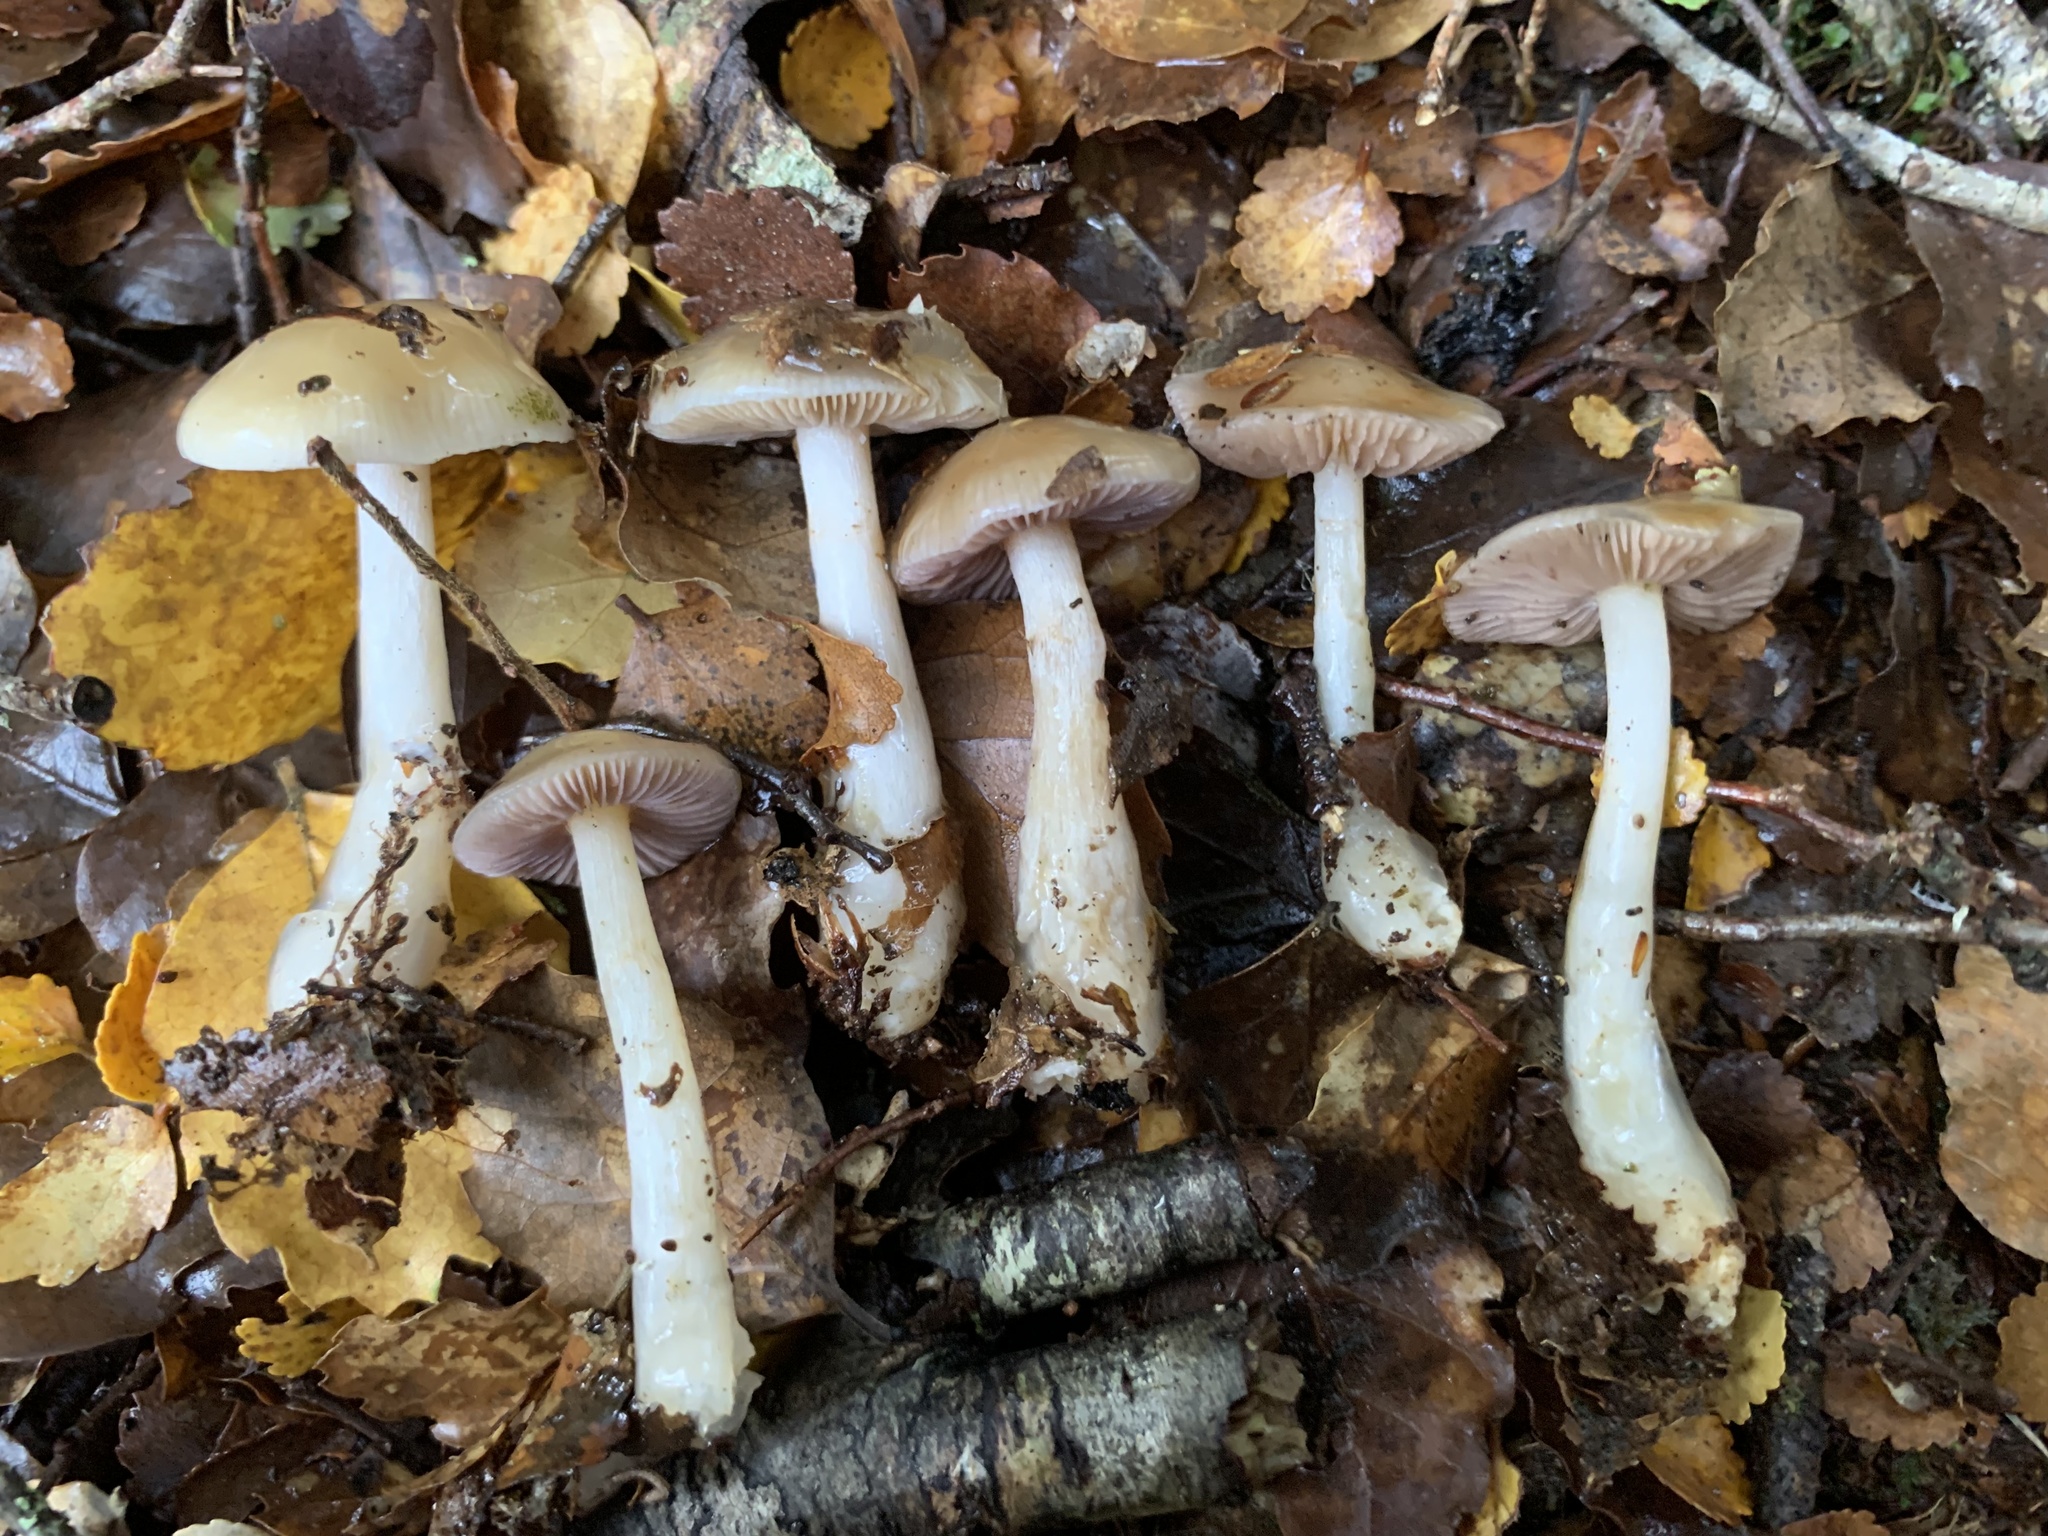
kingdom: Fungi
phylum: Basidiomycota
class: Agaricomycetes
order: Agaricales
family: Cortinariaceae
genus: Cortinarius
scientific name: Cortinarius vitreopileatus
